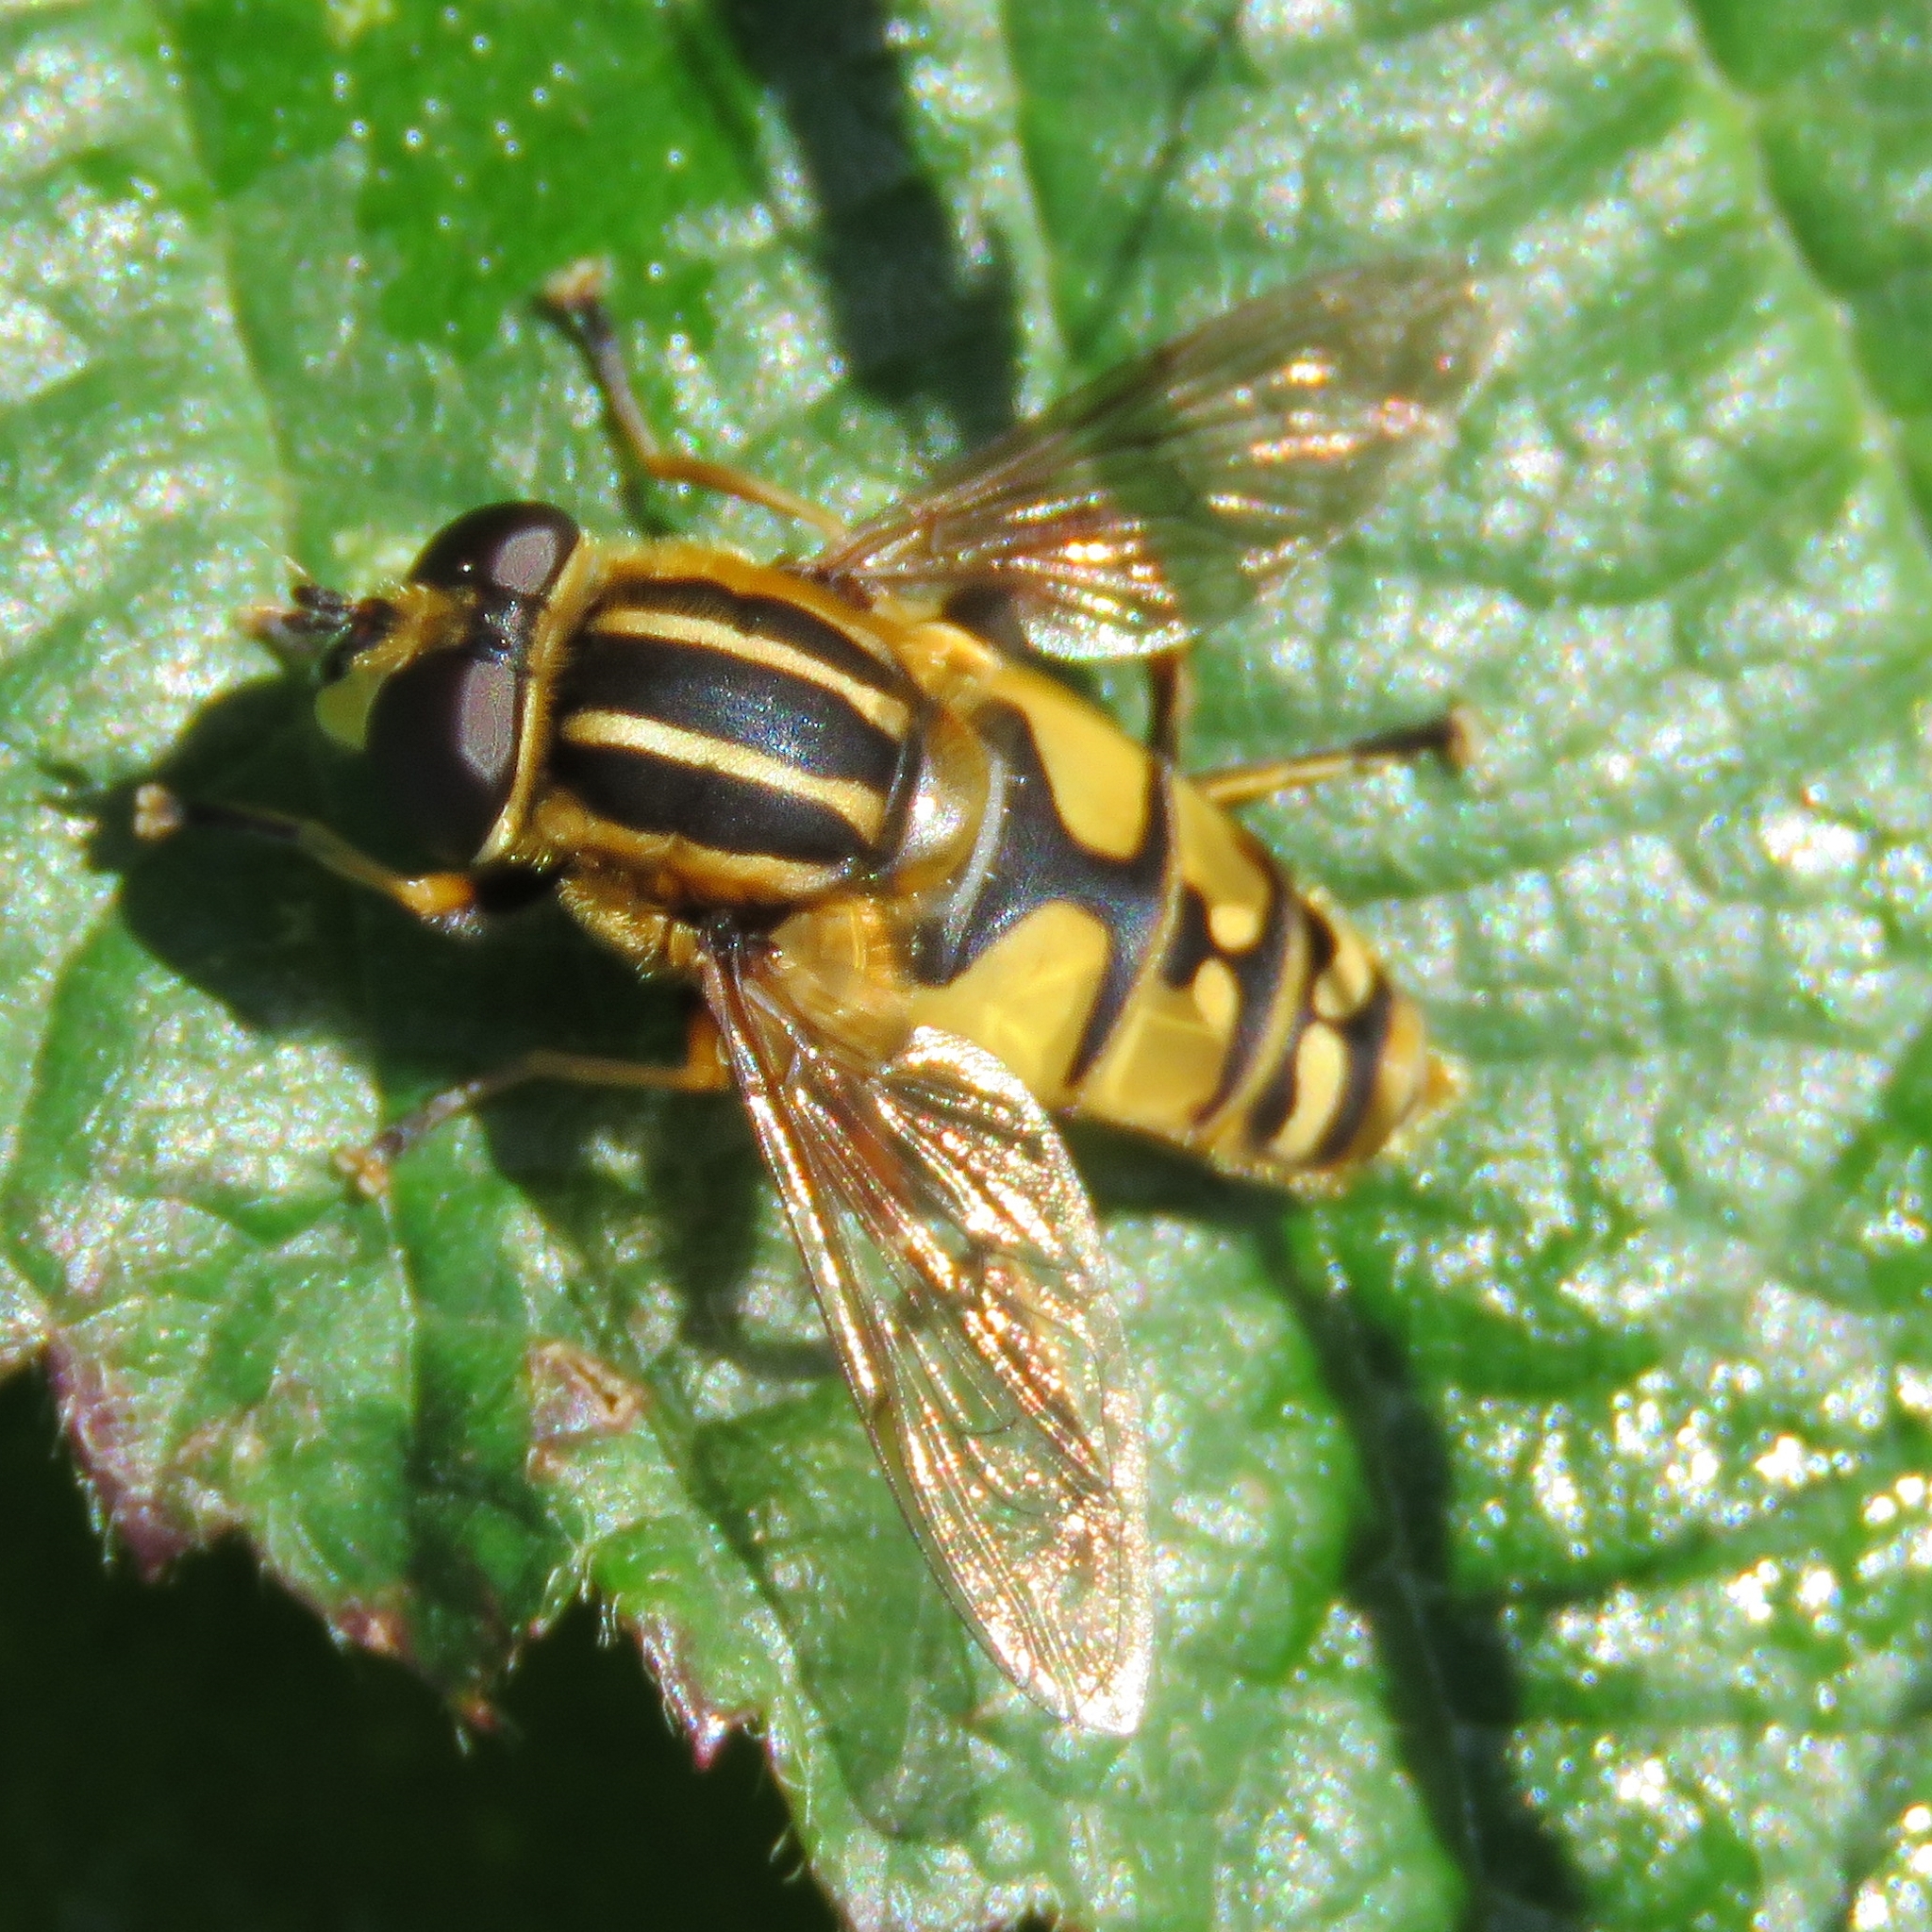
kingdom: Animalia
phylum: Arthropoda
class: Insecta
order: Diptera
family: Syrphidae
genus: Helophilus
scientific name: Helophilus pendulus
